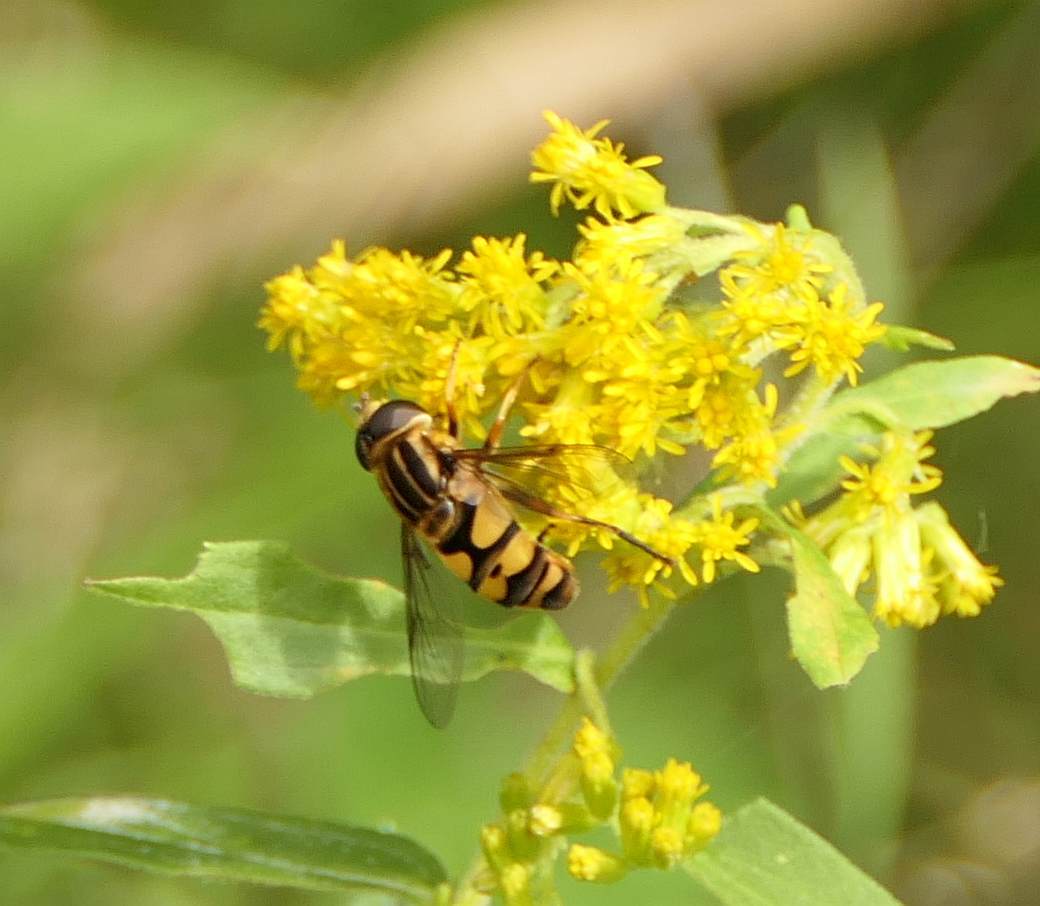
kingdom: Animalia
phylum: Arthropoda
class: Insecta
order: Diptera
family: Syrphidae
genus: Helophilus
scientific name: Helophilus fasciatus
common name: Narrow-headed marsh fly
